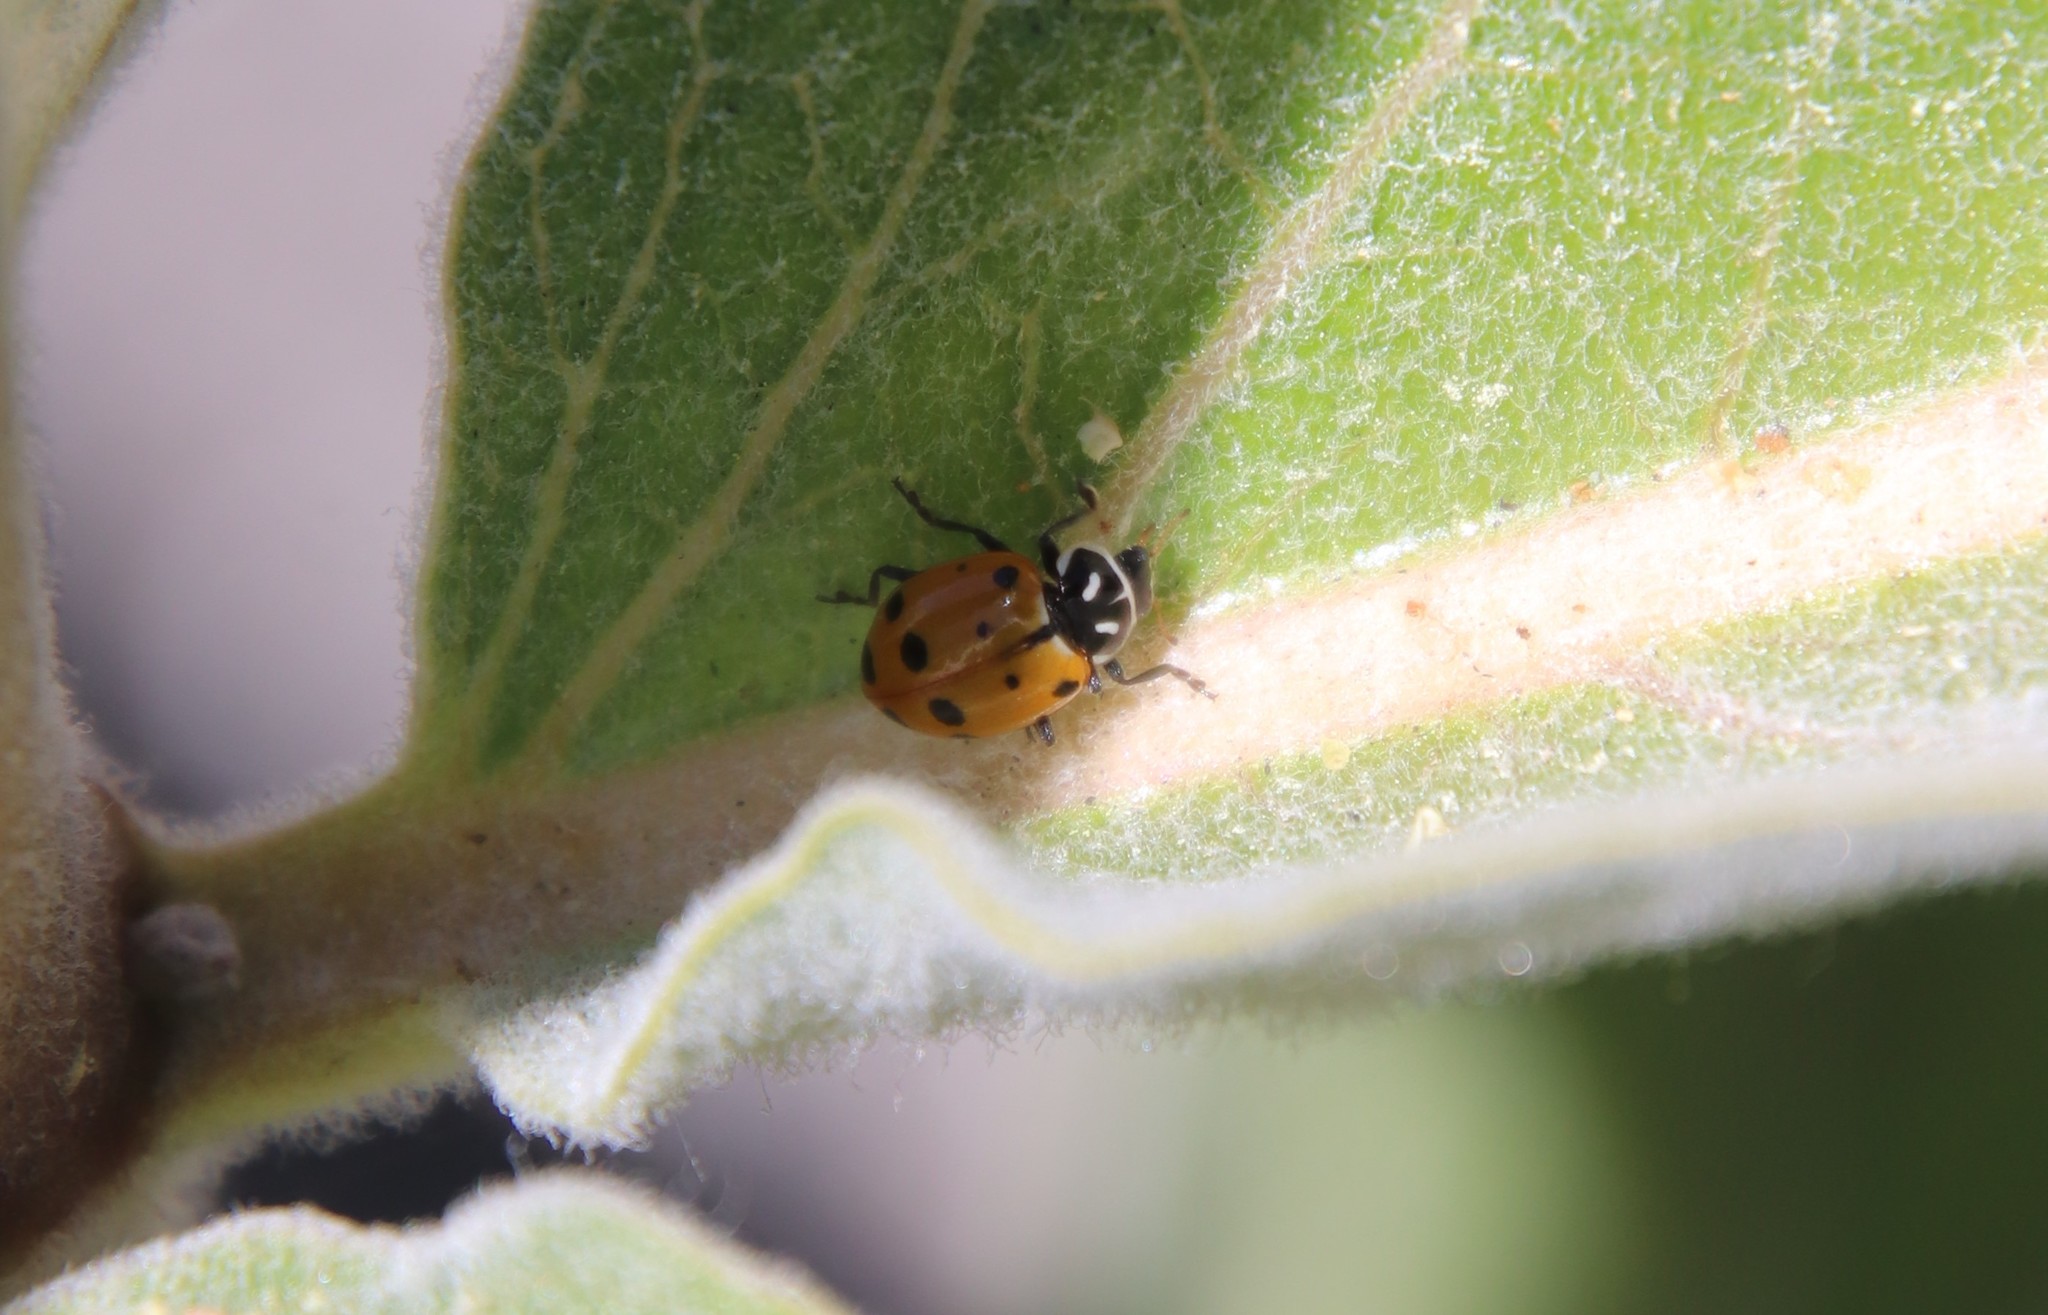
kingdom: Animalia
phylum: Arthropoda
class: Insecta
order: Coleoptera
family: Coccinellidae
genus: Hippodamia
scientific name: Hippodamia convergens
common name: Convergent lady beetle
